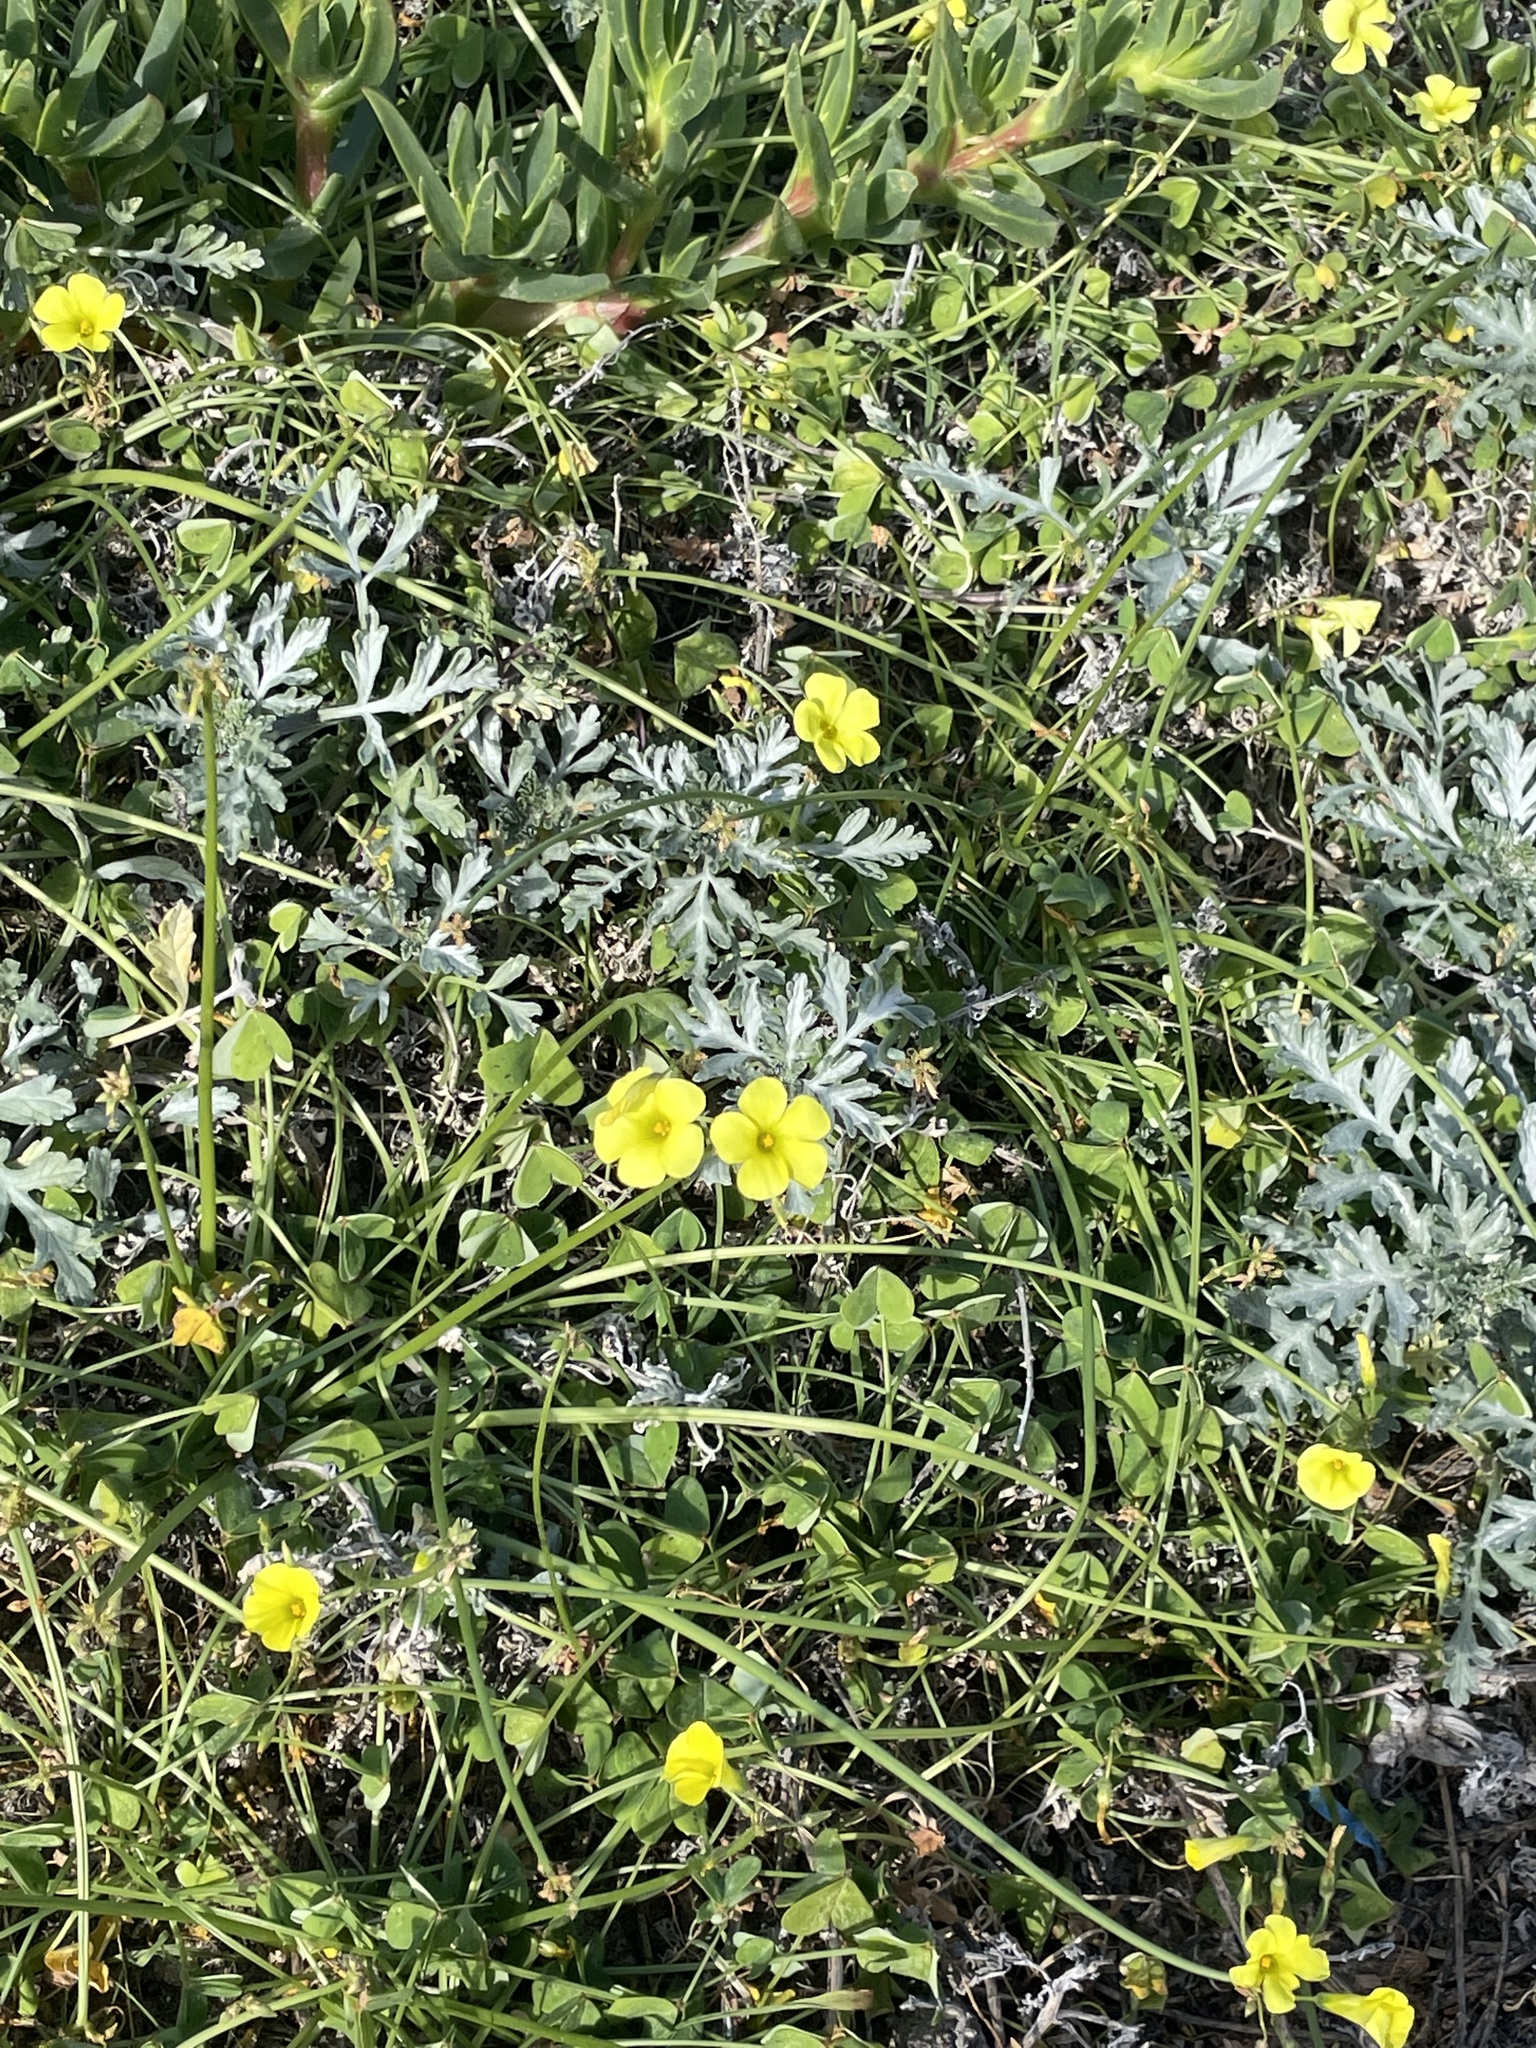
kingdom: Plantae
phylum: Tracheophyta
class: Magnoliopsida
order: Oxalidales
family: Oxalidaceae
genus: Oxalis
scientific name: Oxalis pes-caprae
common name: Bermuda-buttercup
